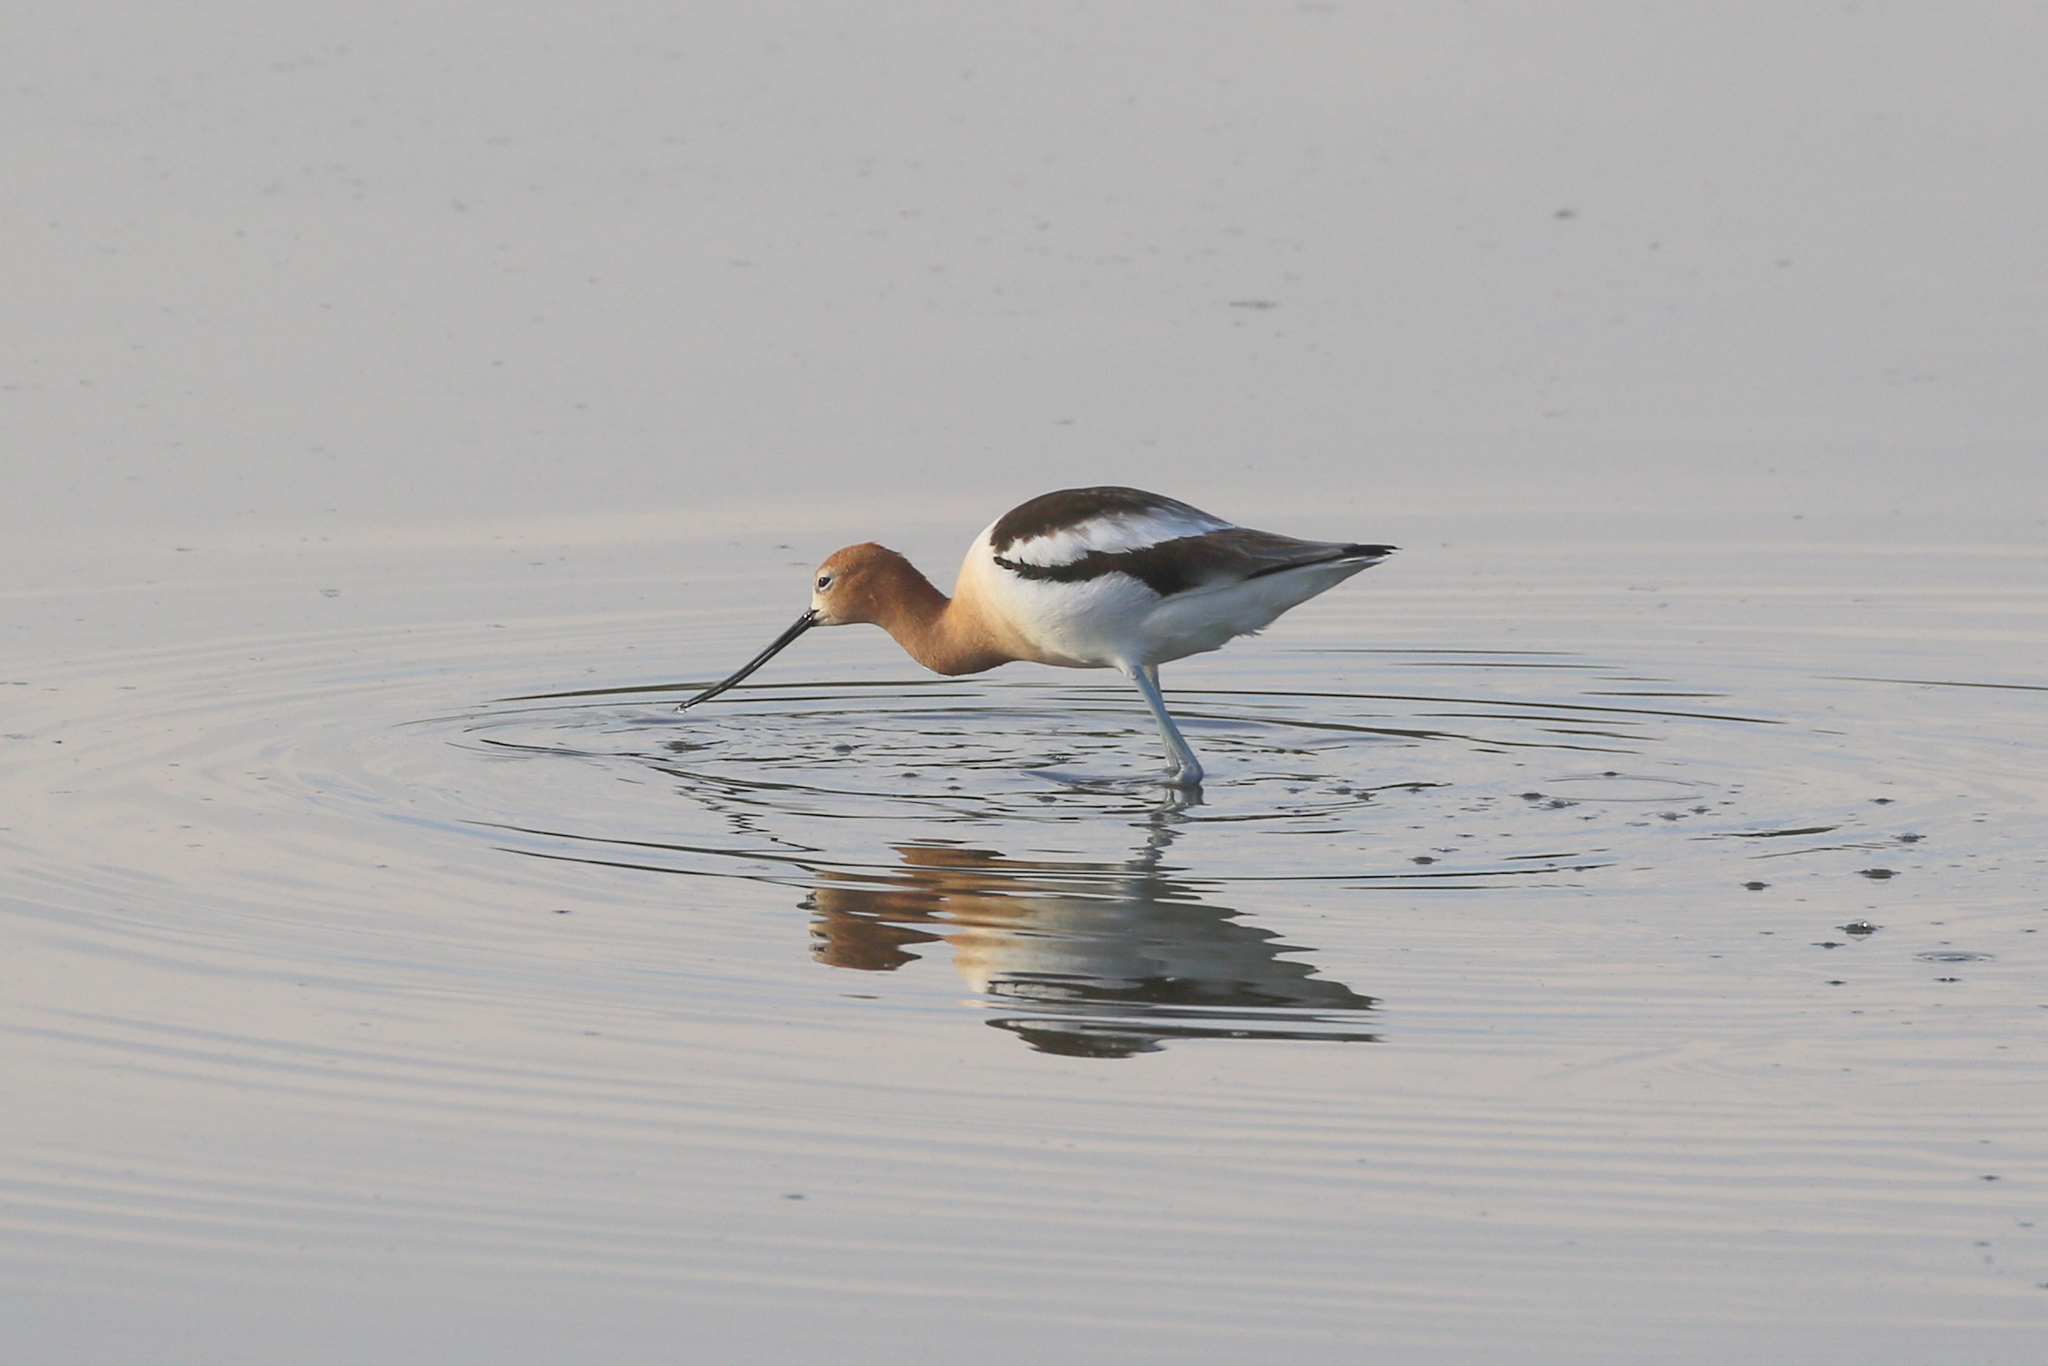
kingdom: Animalia
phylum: Chordata
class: Aves
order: Charadriiformes
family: Recurvirostridae
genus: Recurvirostra
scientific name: Recurvirostra americana
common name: American avocet
